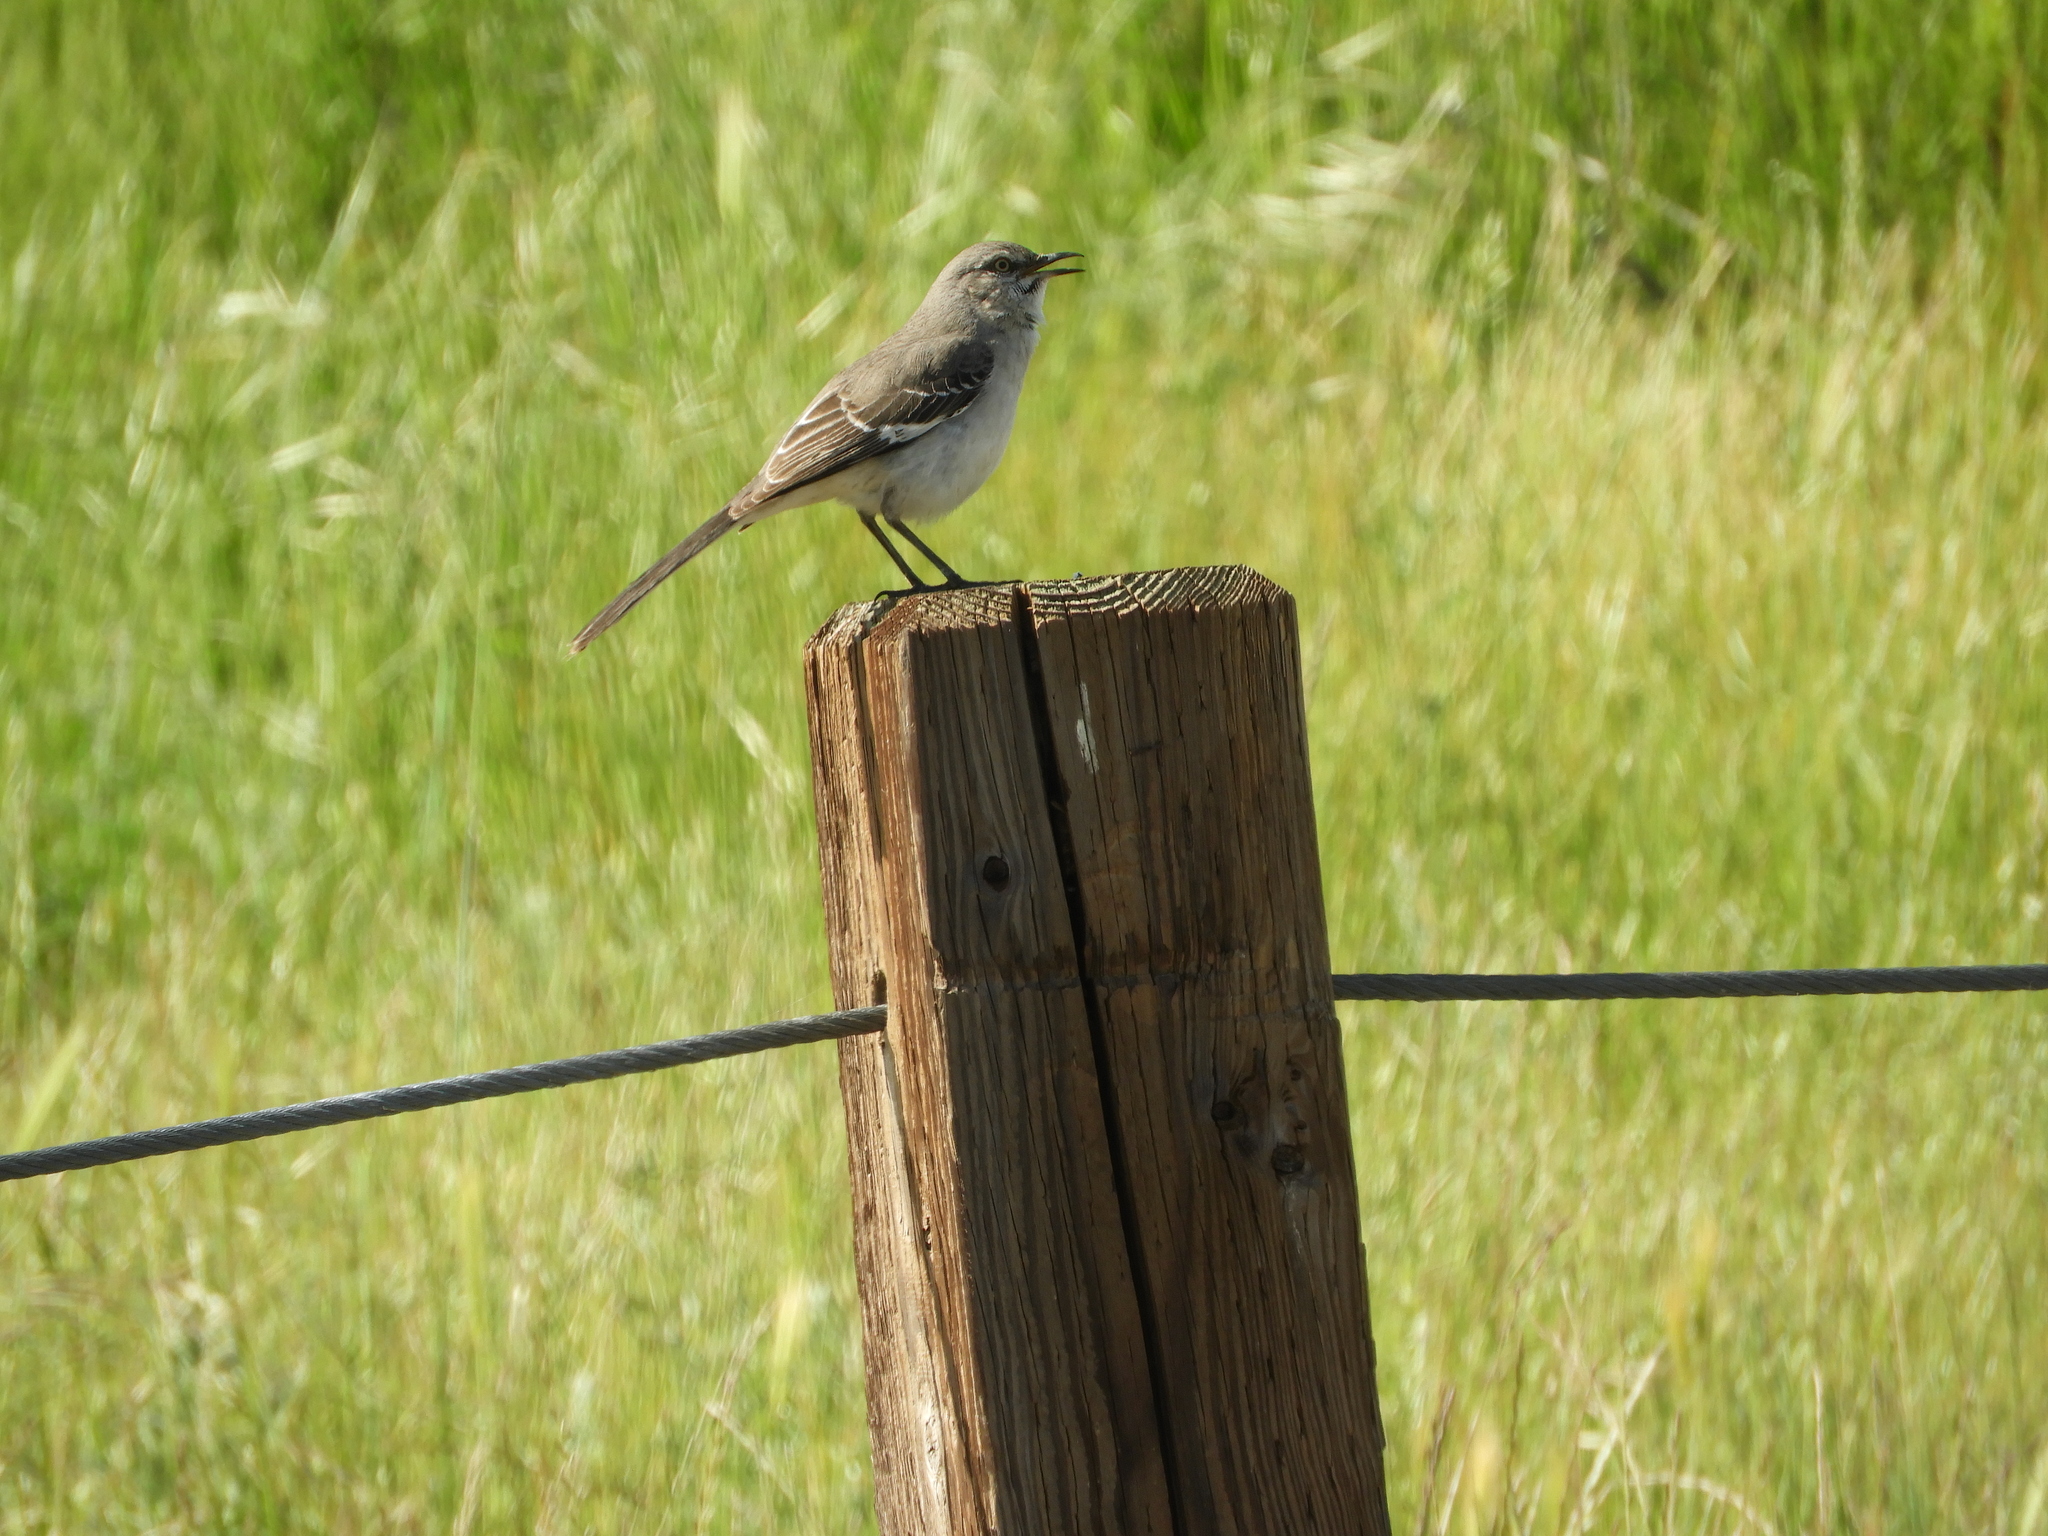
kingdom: Animalia
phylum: Chordata
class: Aves
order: Passeriformes
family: Mimidae
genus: Mimus
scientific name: Mimus polyglottos
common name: Northern mockingbird
